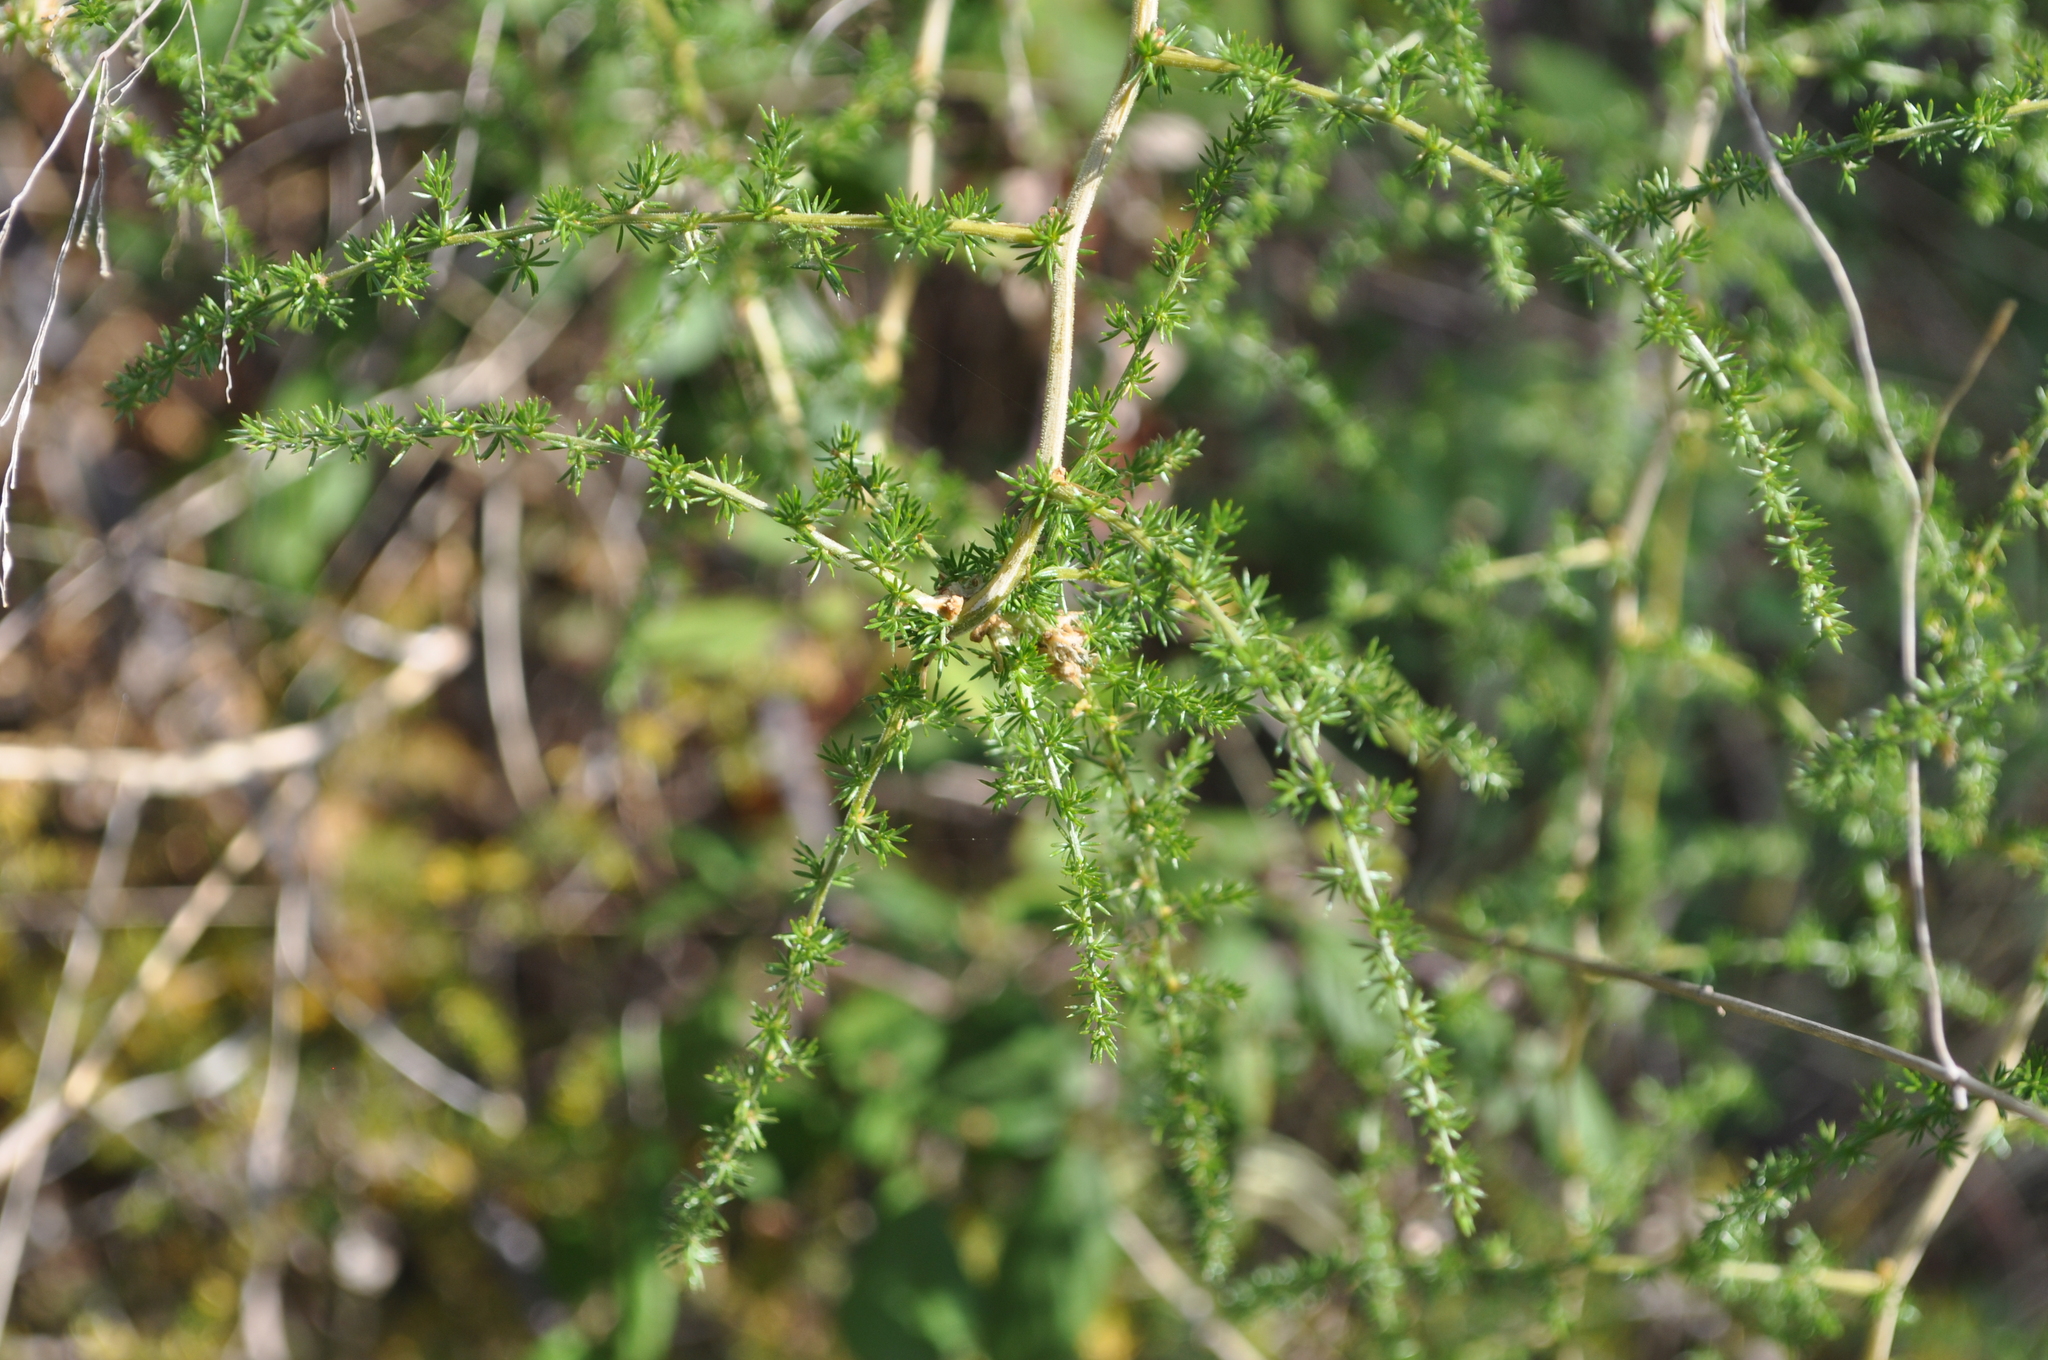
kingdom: Plantae
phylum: Tracheophyta
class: Liliopsida
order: Asparagales
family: Asparagaceae
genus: Asparagus
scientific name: Asparagus acutifolius
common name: Wild asparagus
